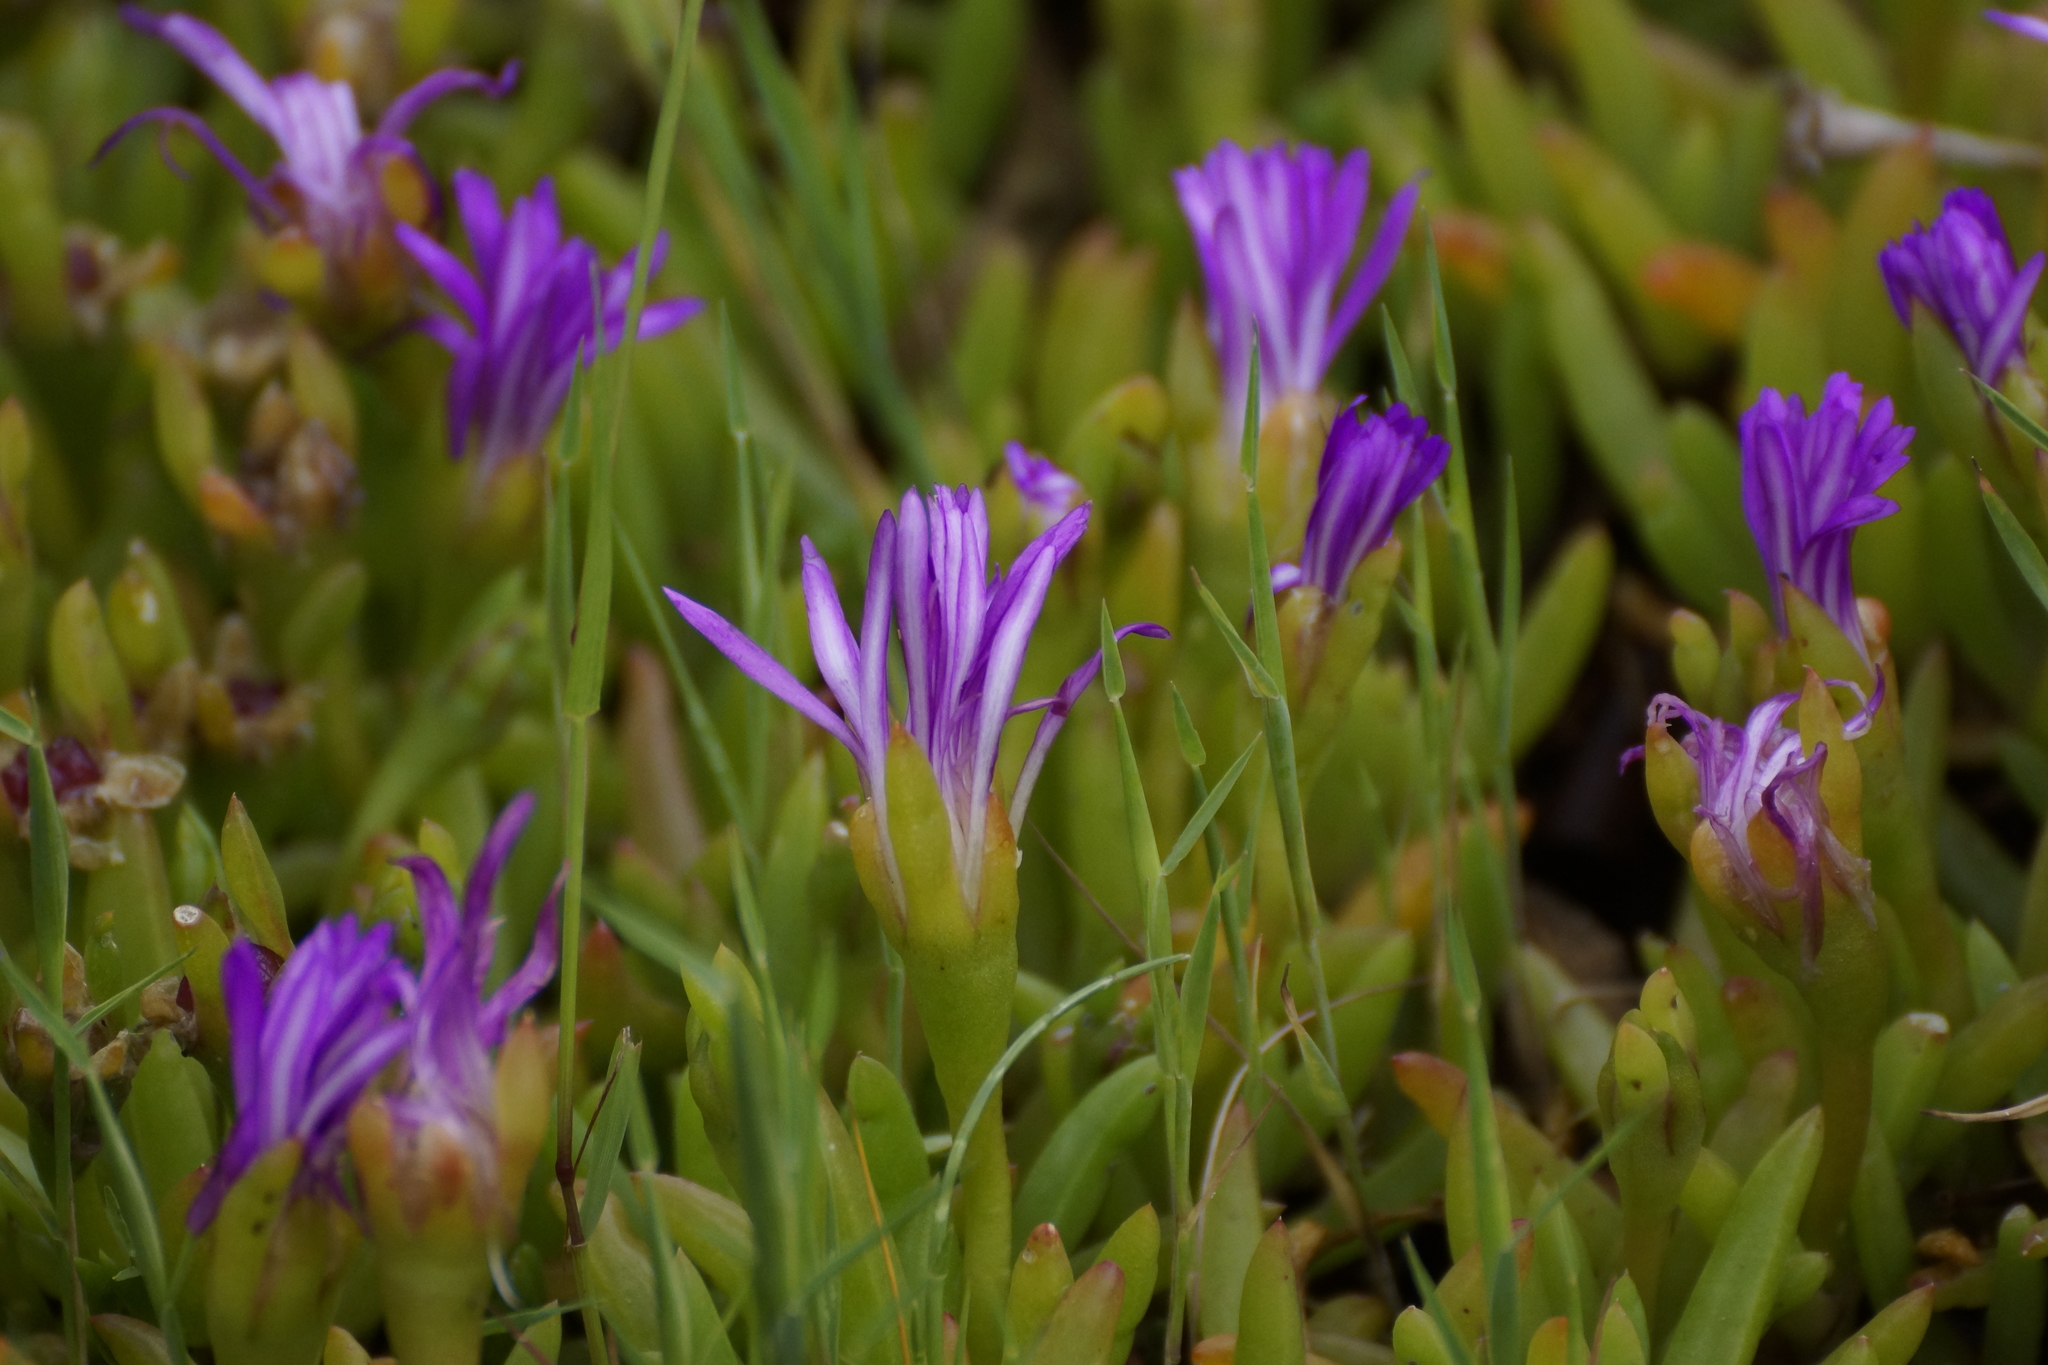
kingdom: Plantae
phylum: Tracheophyta
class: Magnoliopsida
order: Caryophyllales
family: Aizoaceae
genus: Disphyma
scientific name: Disphyma crassifolium
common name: Purple dewplant
